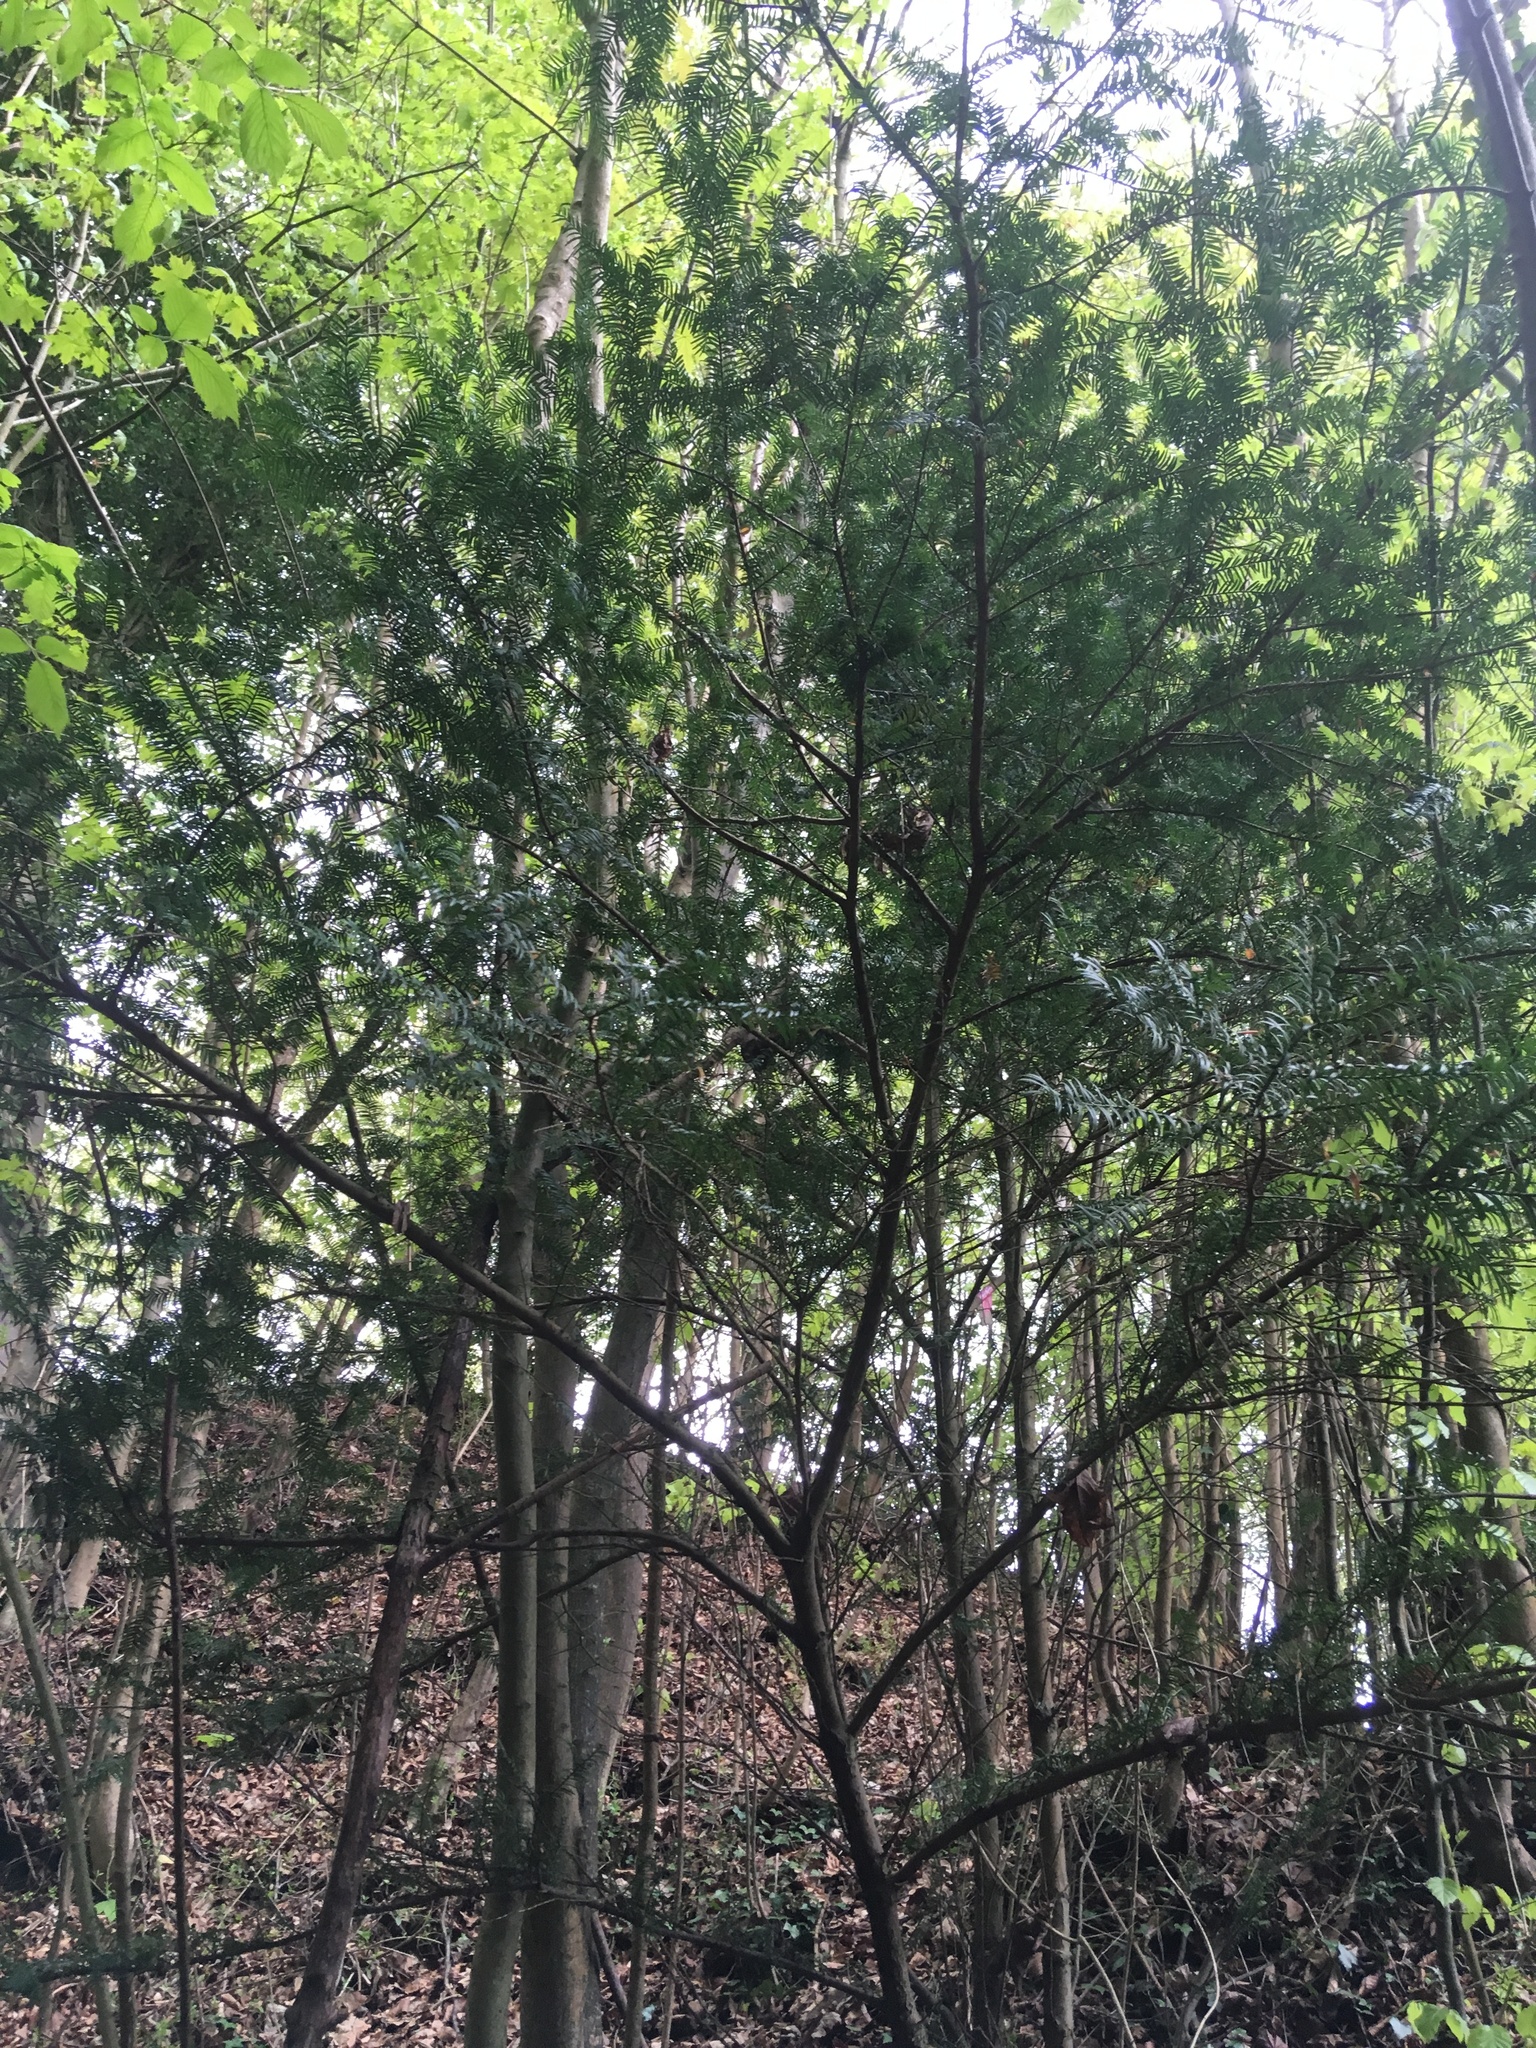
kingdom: Plantae
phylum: Tracheophyta
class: Pinopsida
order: Pinales
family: Taxaceae
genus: Taxus
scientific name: Taxus baccata
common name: Yew
